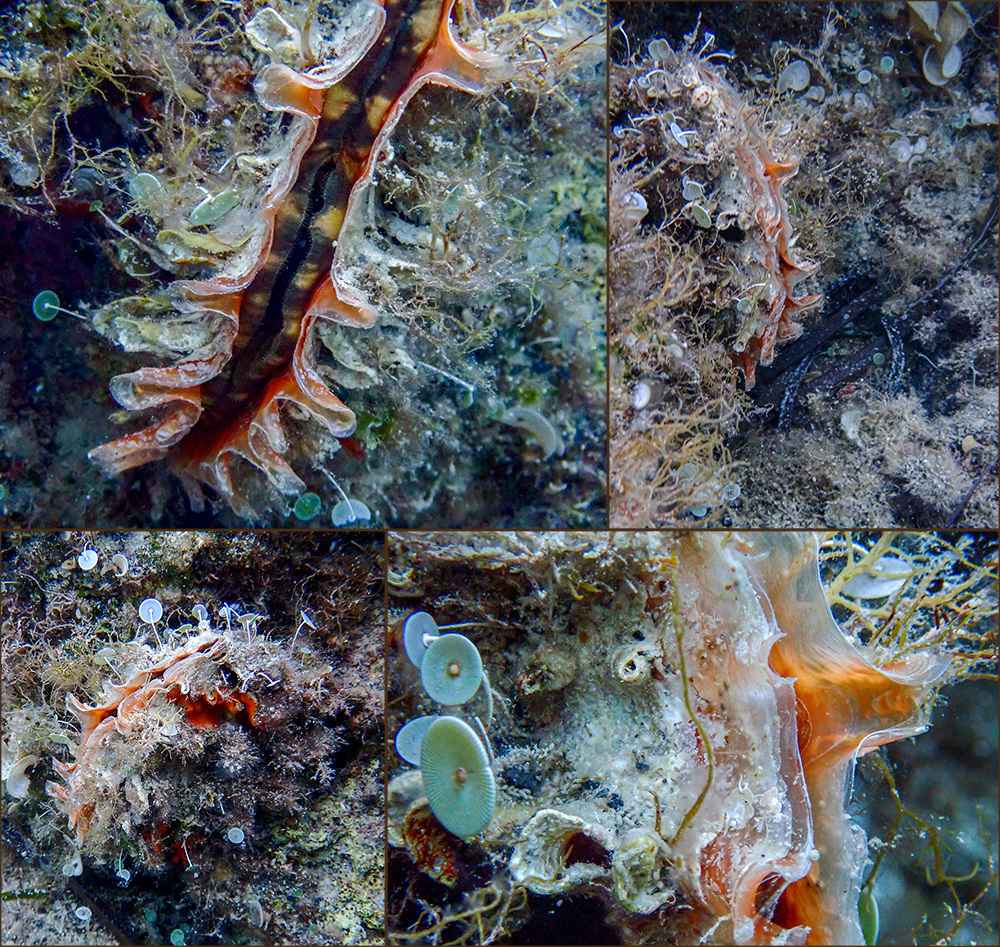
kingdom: Animalia
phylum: Mollusca
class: Bivalvia
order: Ostreida
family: Pinnidae
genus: Pinna
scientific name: Pinna rudis
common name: Rough penshell
